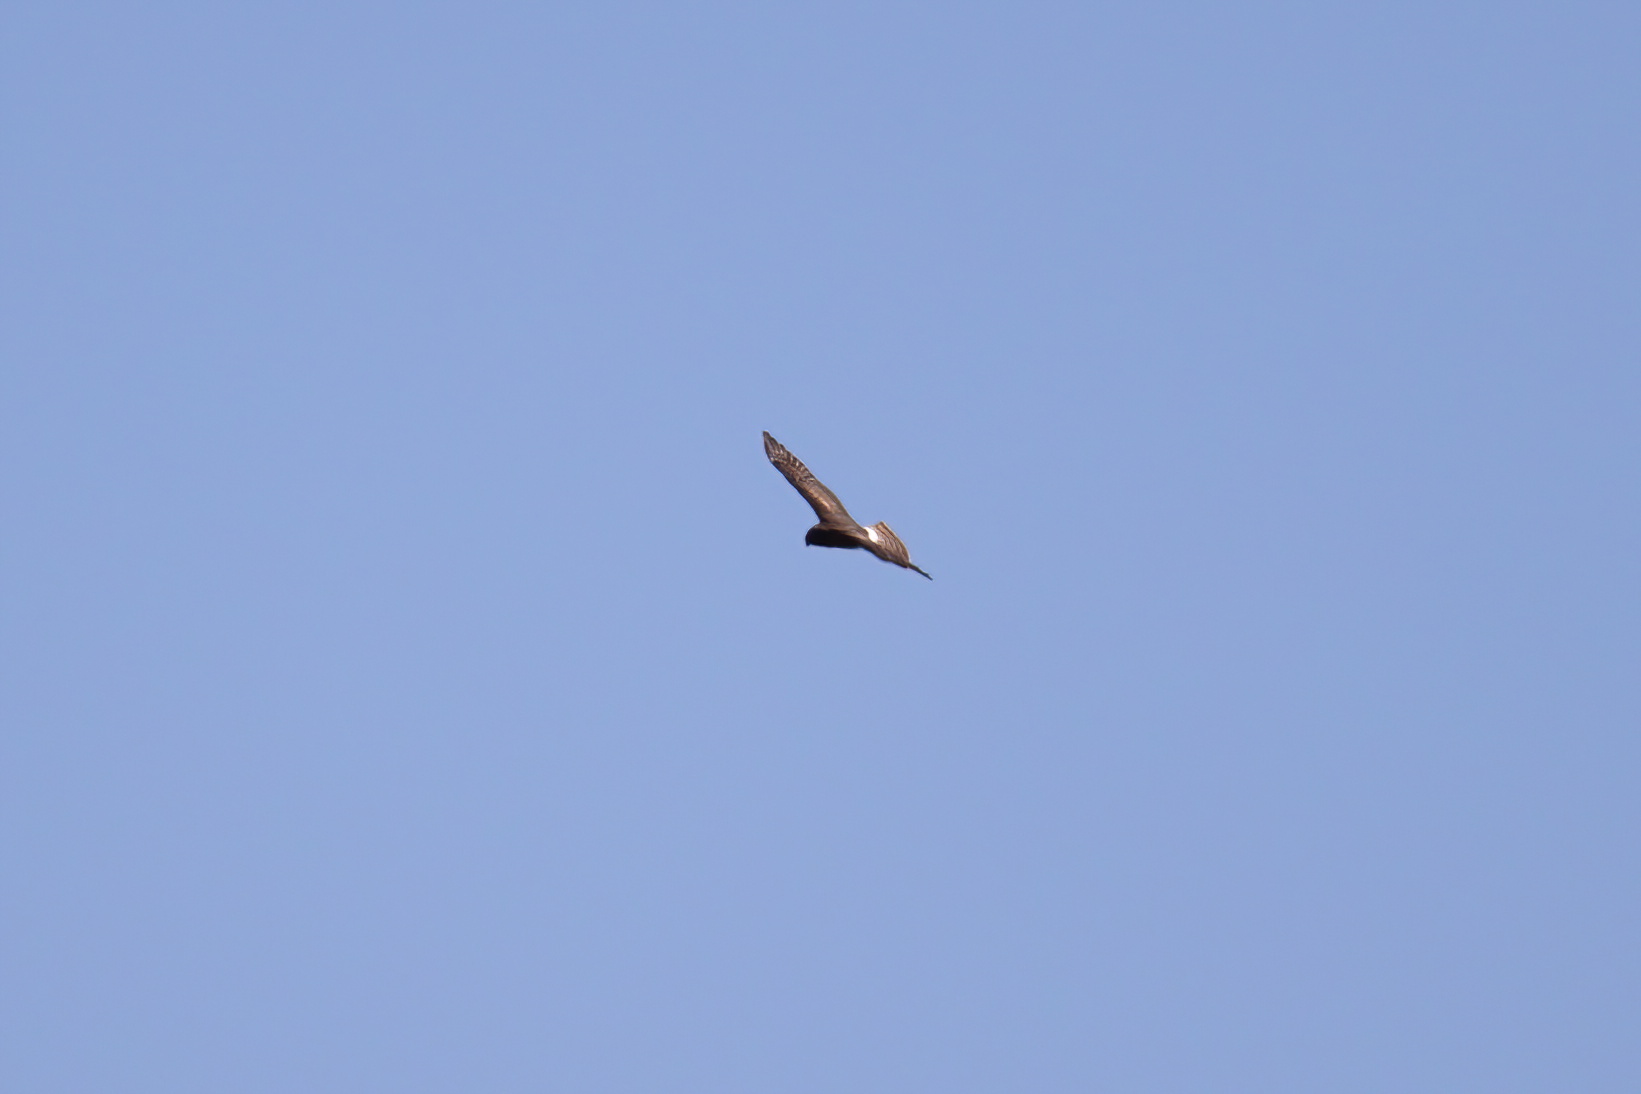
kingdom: Animalia
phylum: Chordata
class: Aves
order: Accipitriformes
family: Accipitridae
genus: Circus
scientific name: Circus cyaneus
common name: Hen harrier
